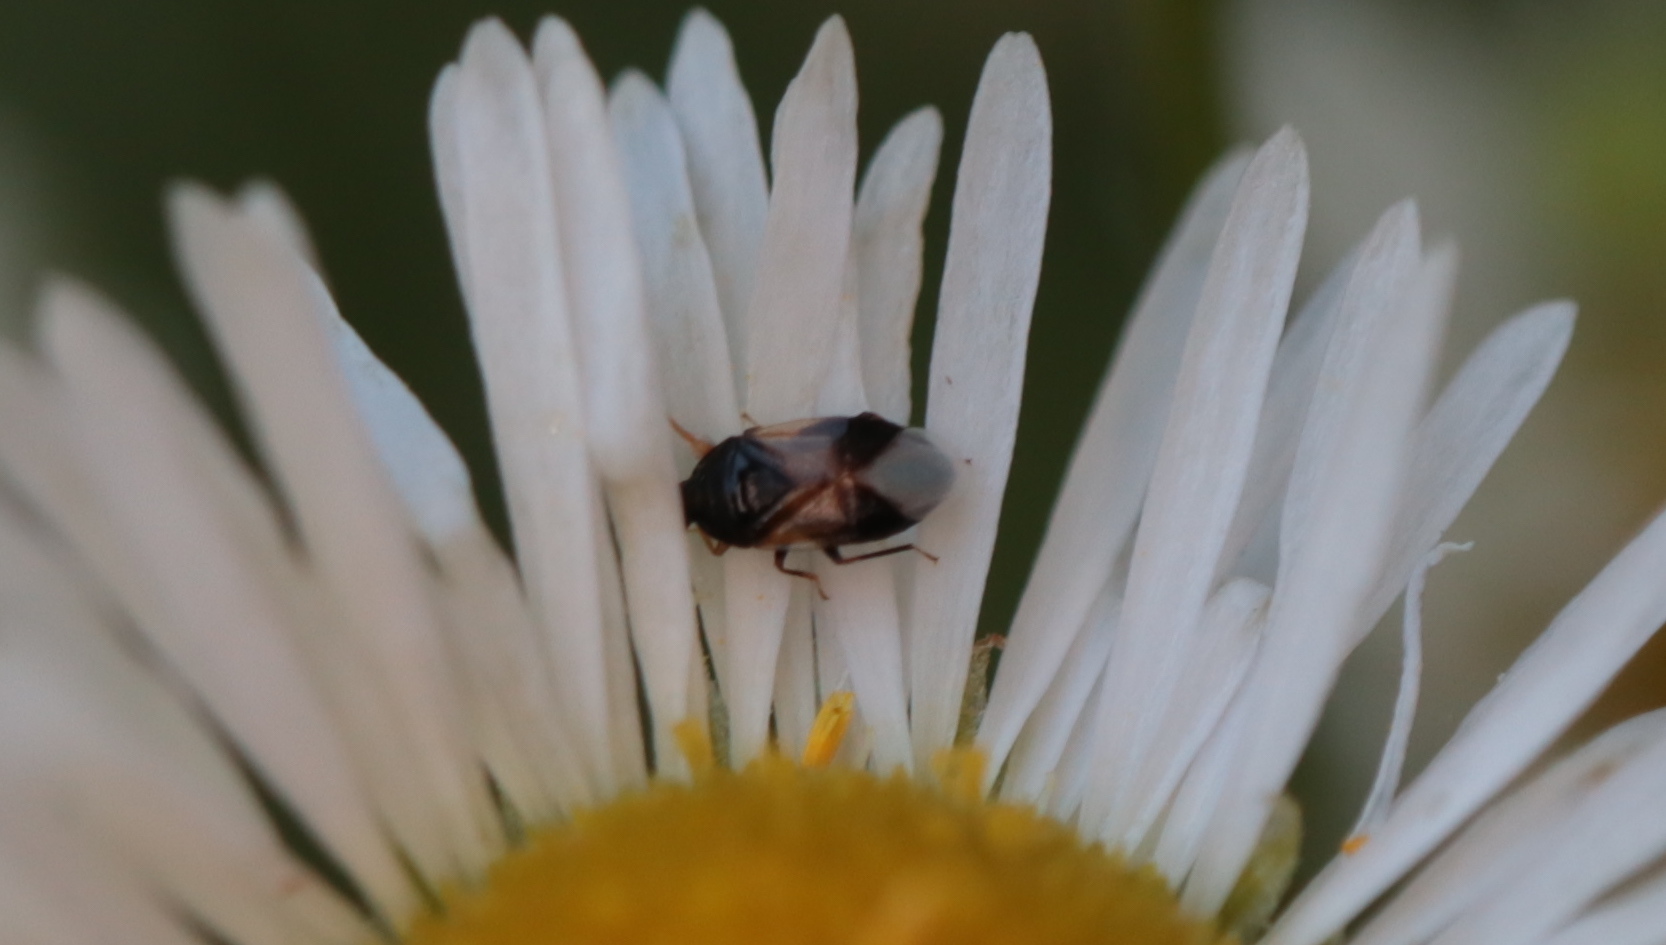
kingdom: Animalia
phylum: Arthropoda
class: Insecta
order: Hemiptera
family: Anthocoridae
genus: Orius
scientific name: Orius insidiosus
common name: Insidious flower bug
